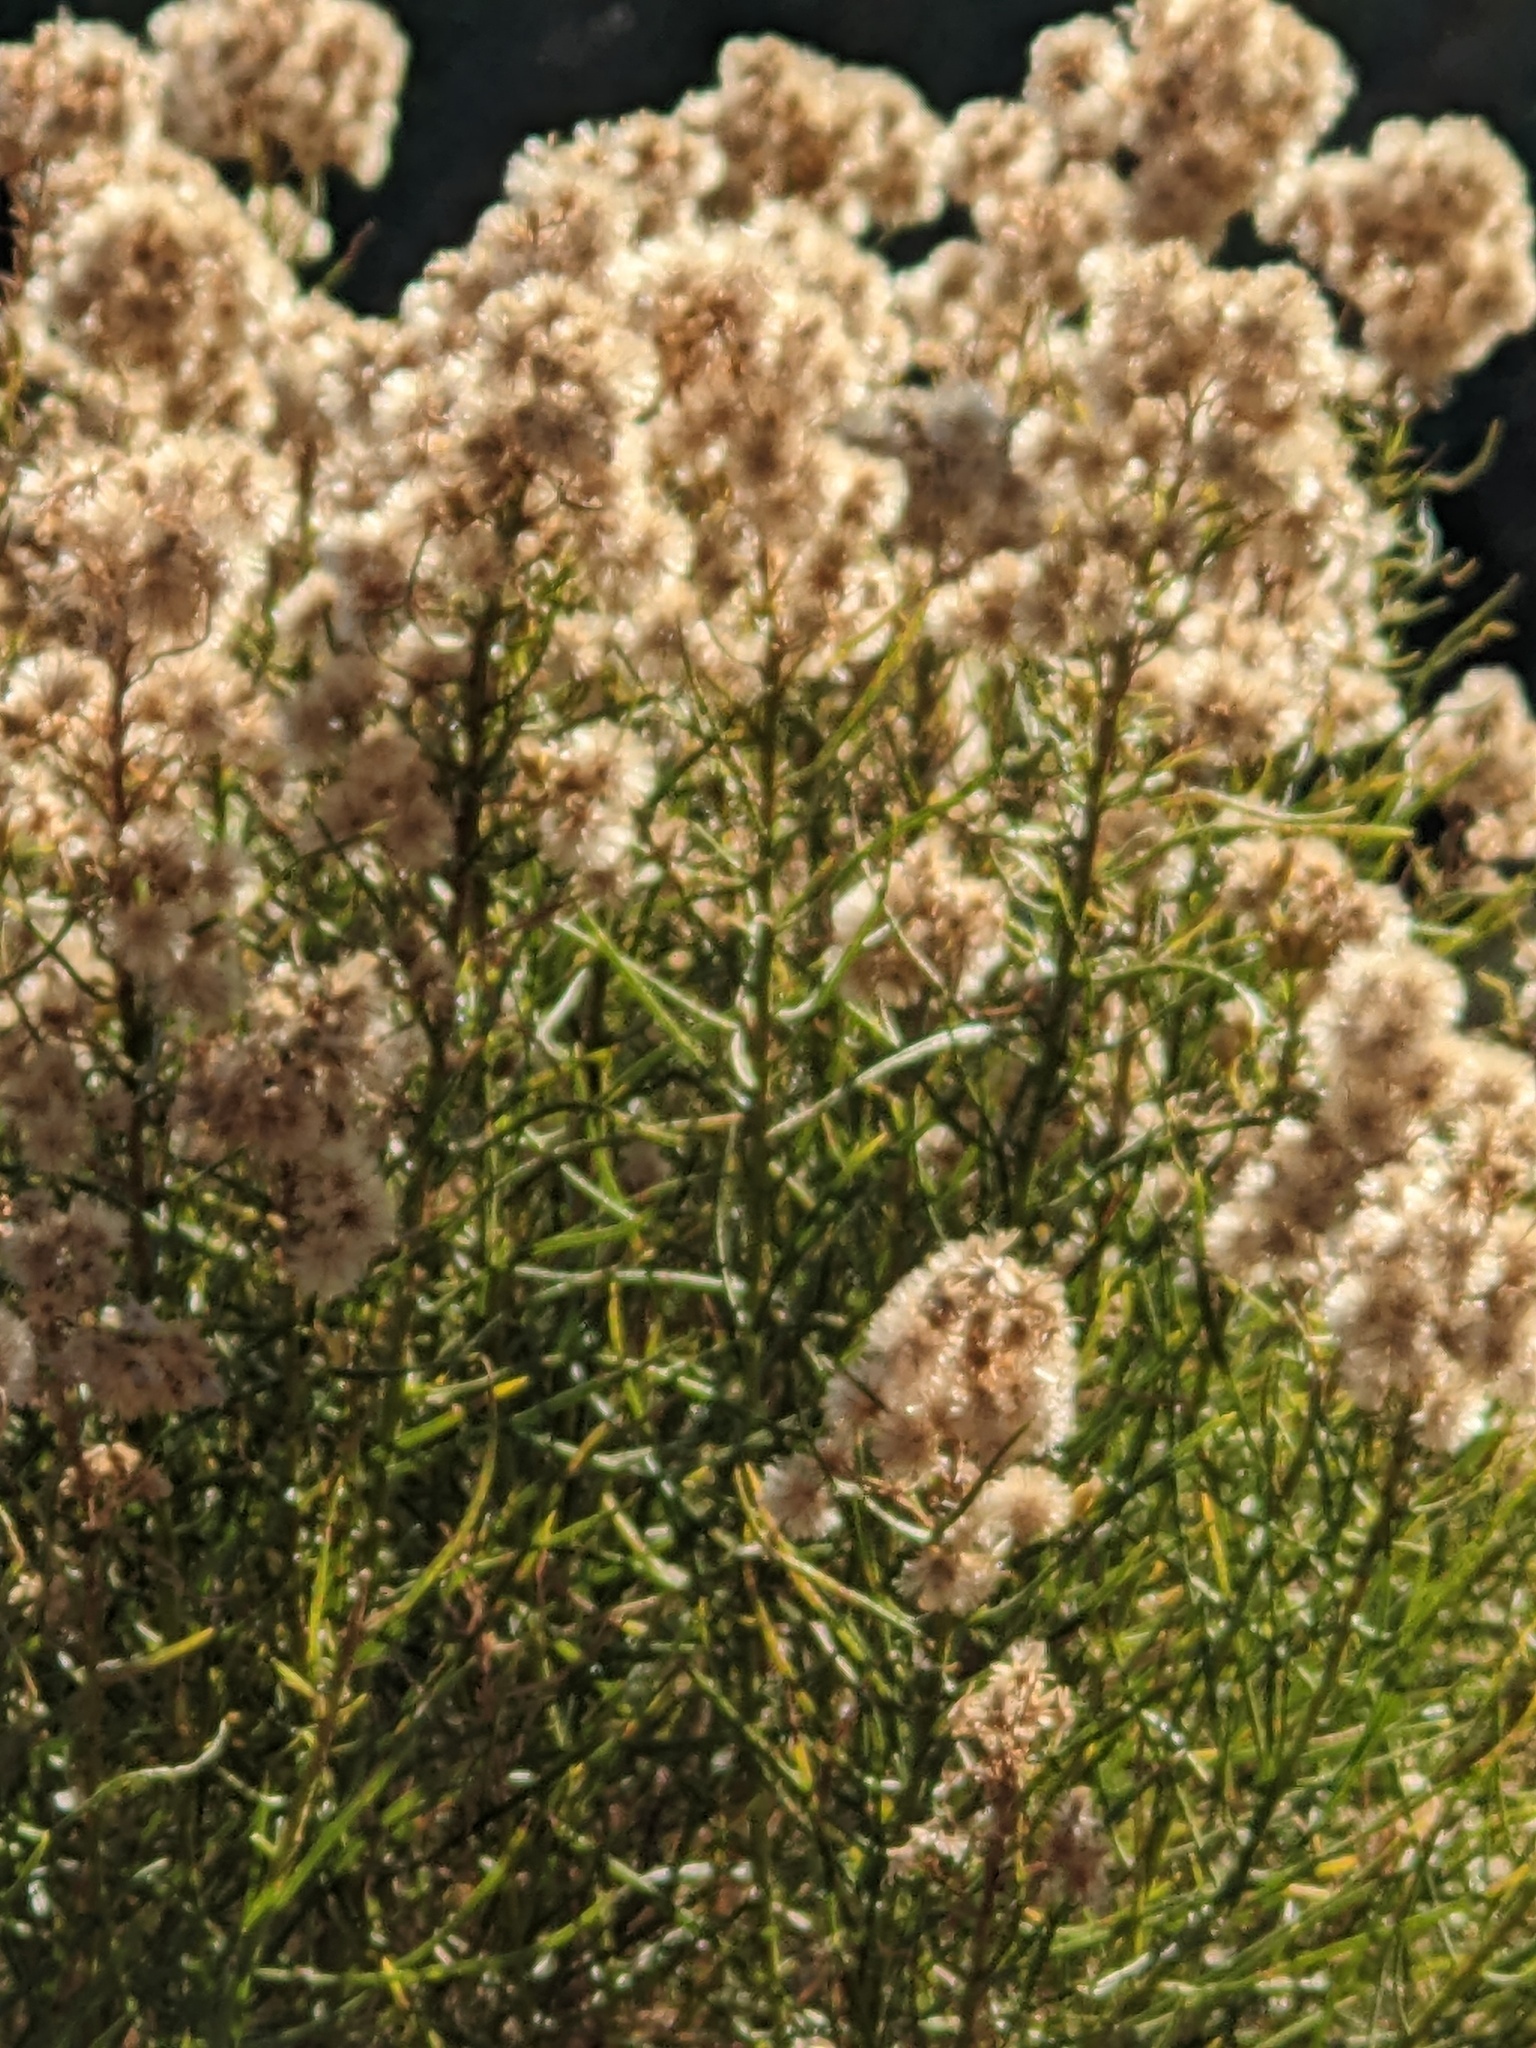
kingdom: Plantae
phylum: Tracheophyta
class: Magnoliopsida
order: Asterales
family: Asteraceae
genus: Ericameria
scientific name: Ericameria arborescens
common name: Goldenfleece
